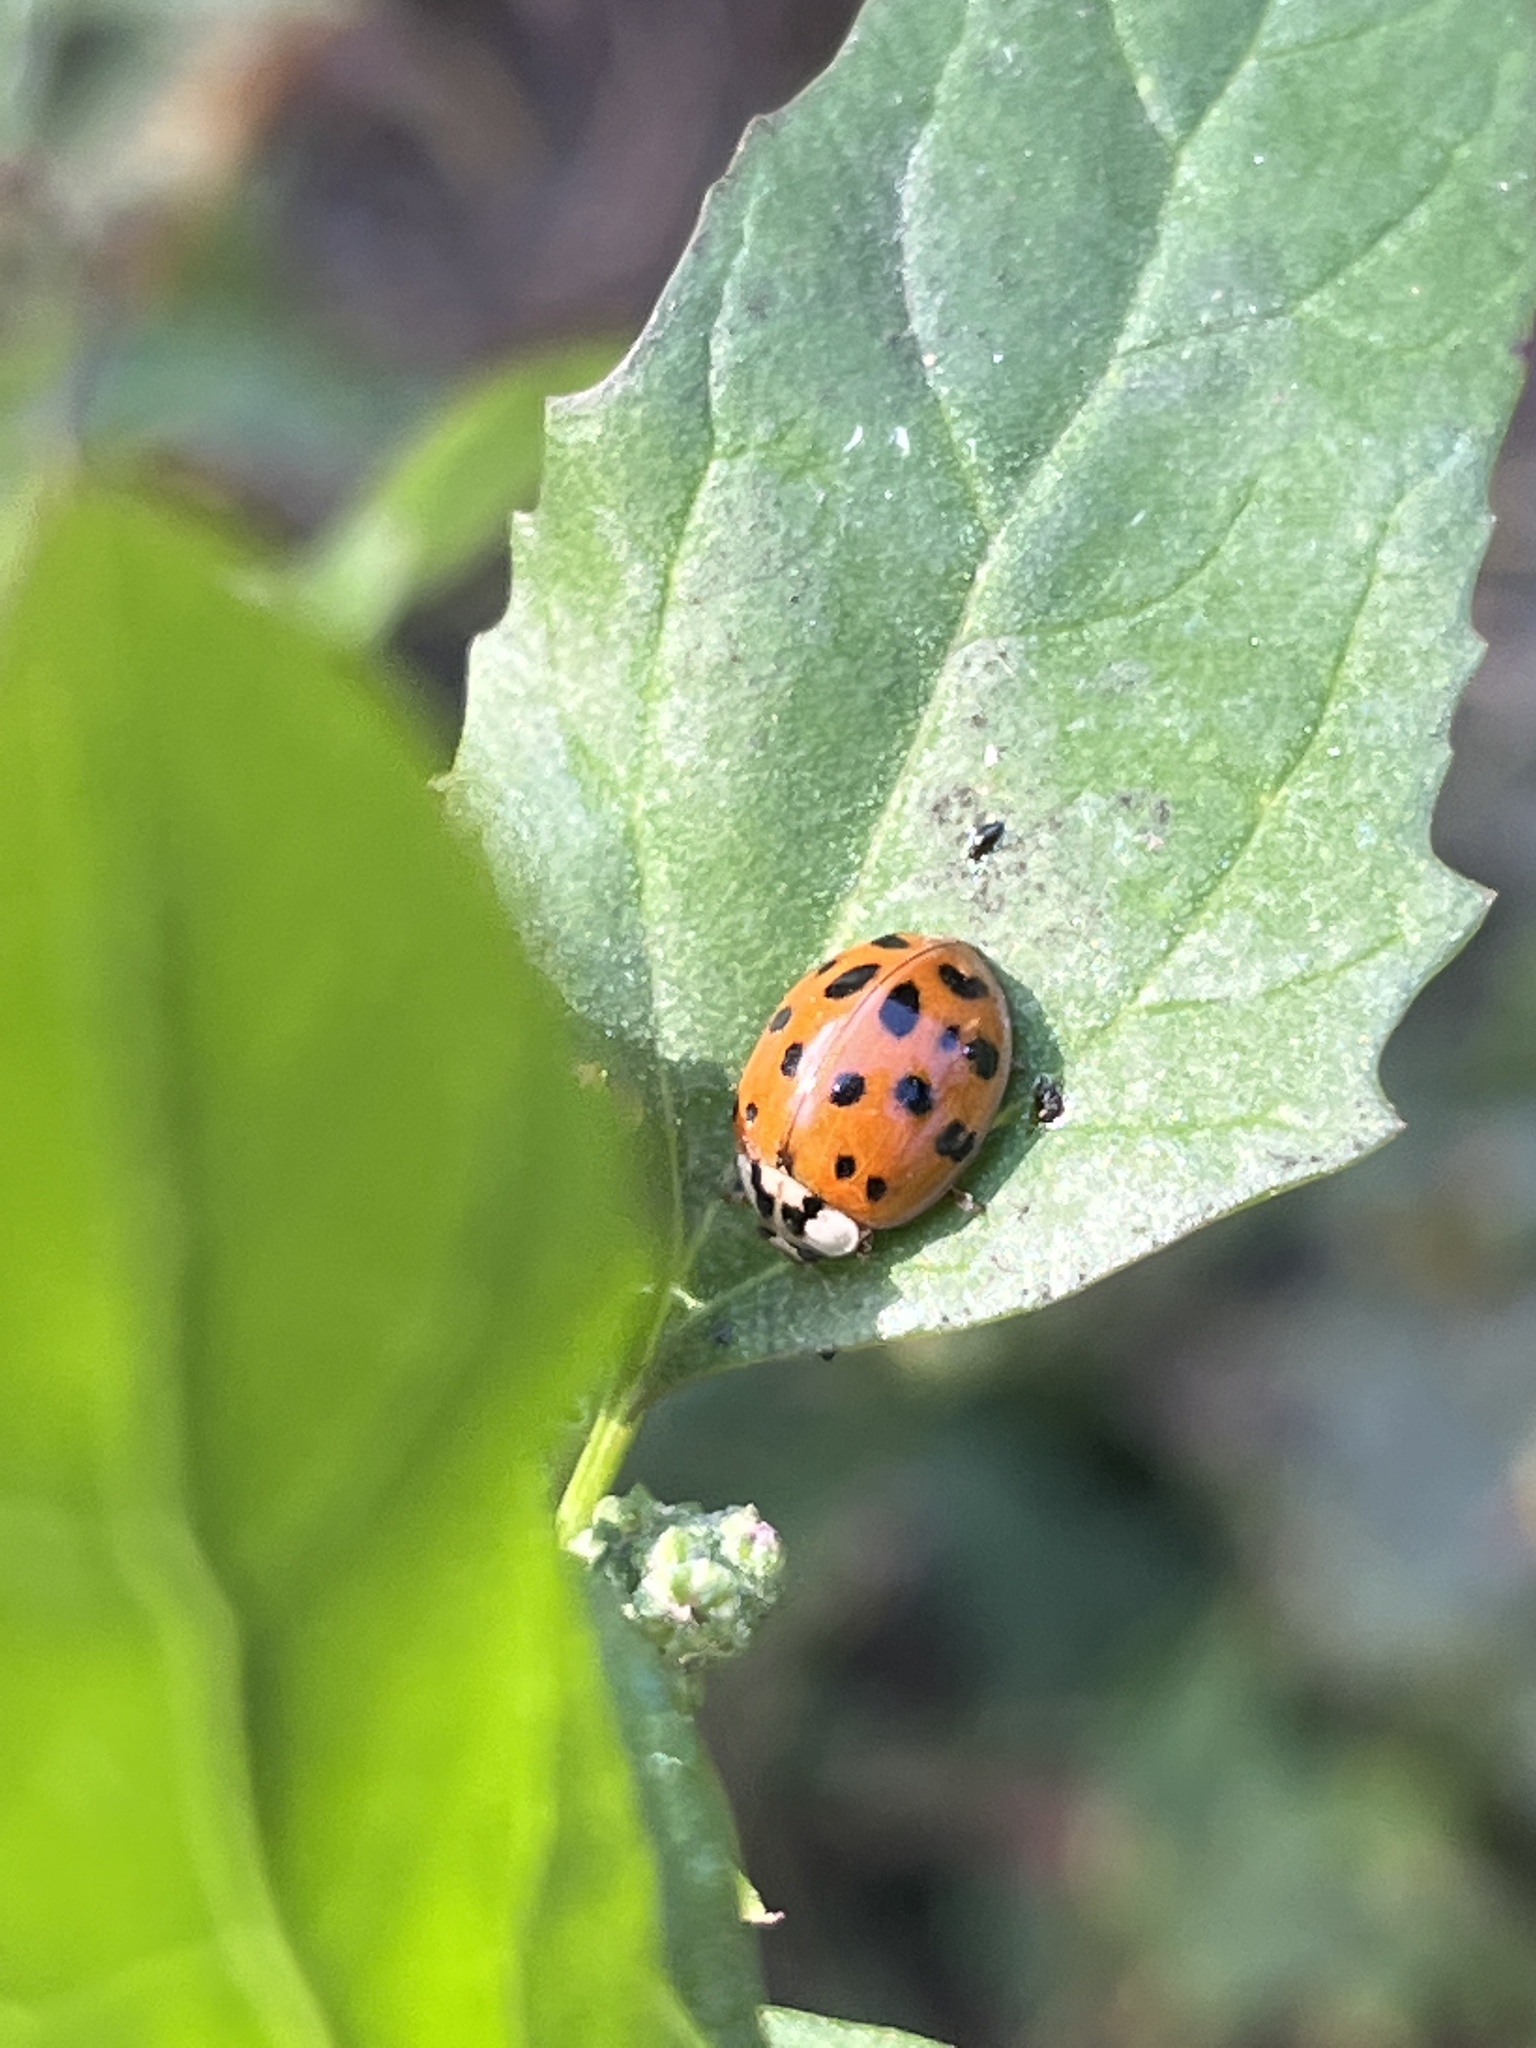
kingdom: Animalia
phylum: Arthropoda
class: Insecta
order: Coleoptera
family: Coccinellidae
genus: Harmonia
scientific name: Harmonia axyridis
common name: Harlequin ladybird
